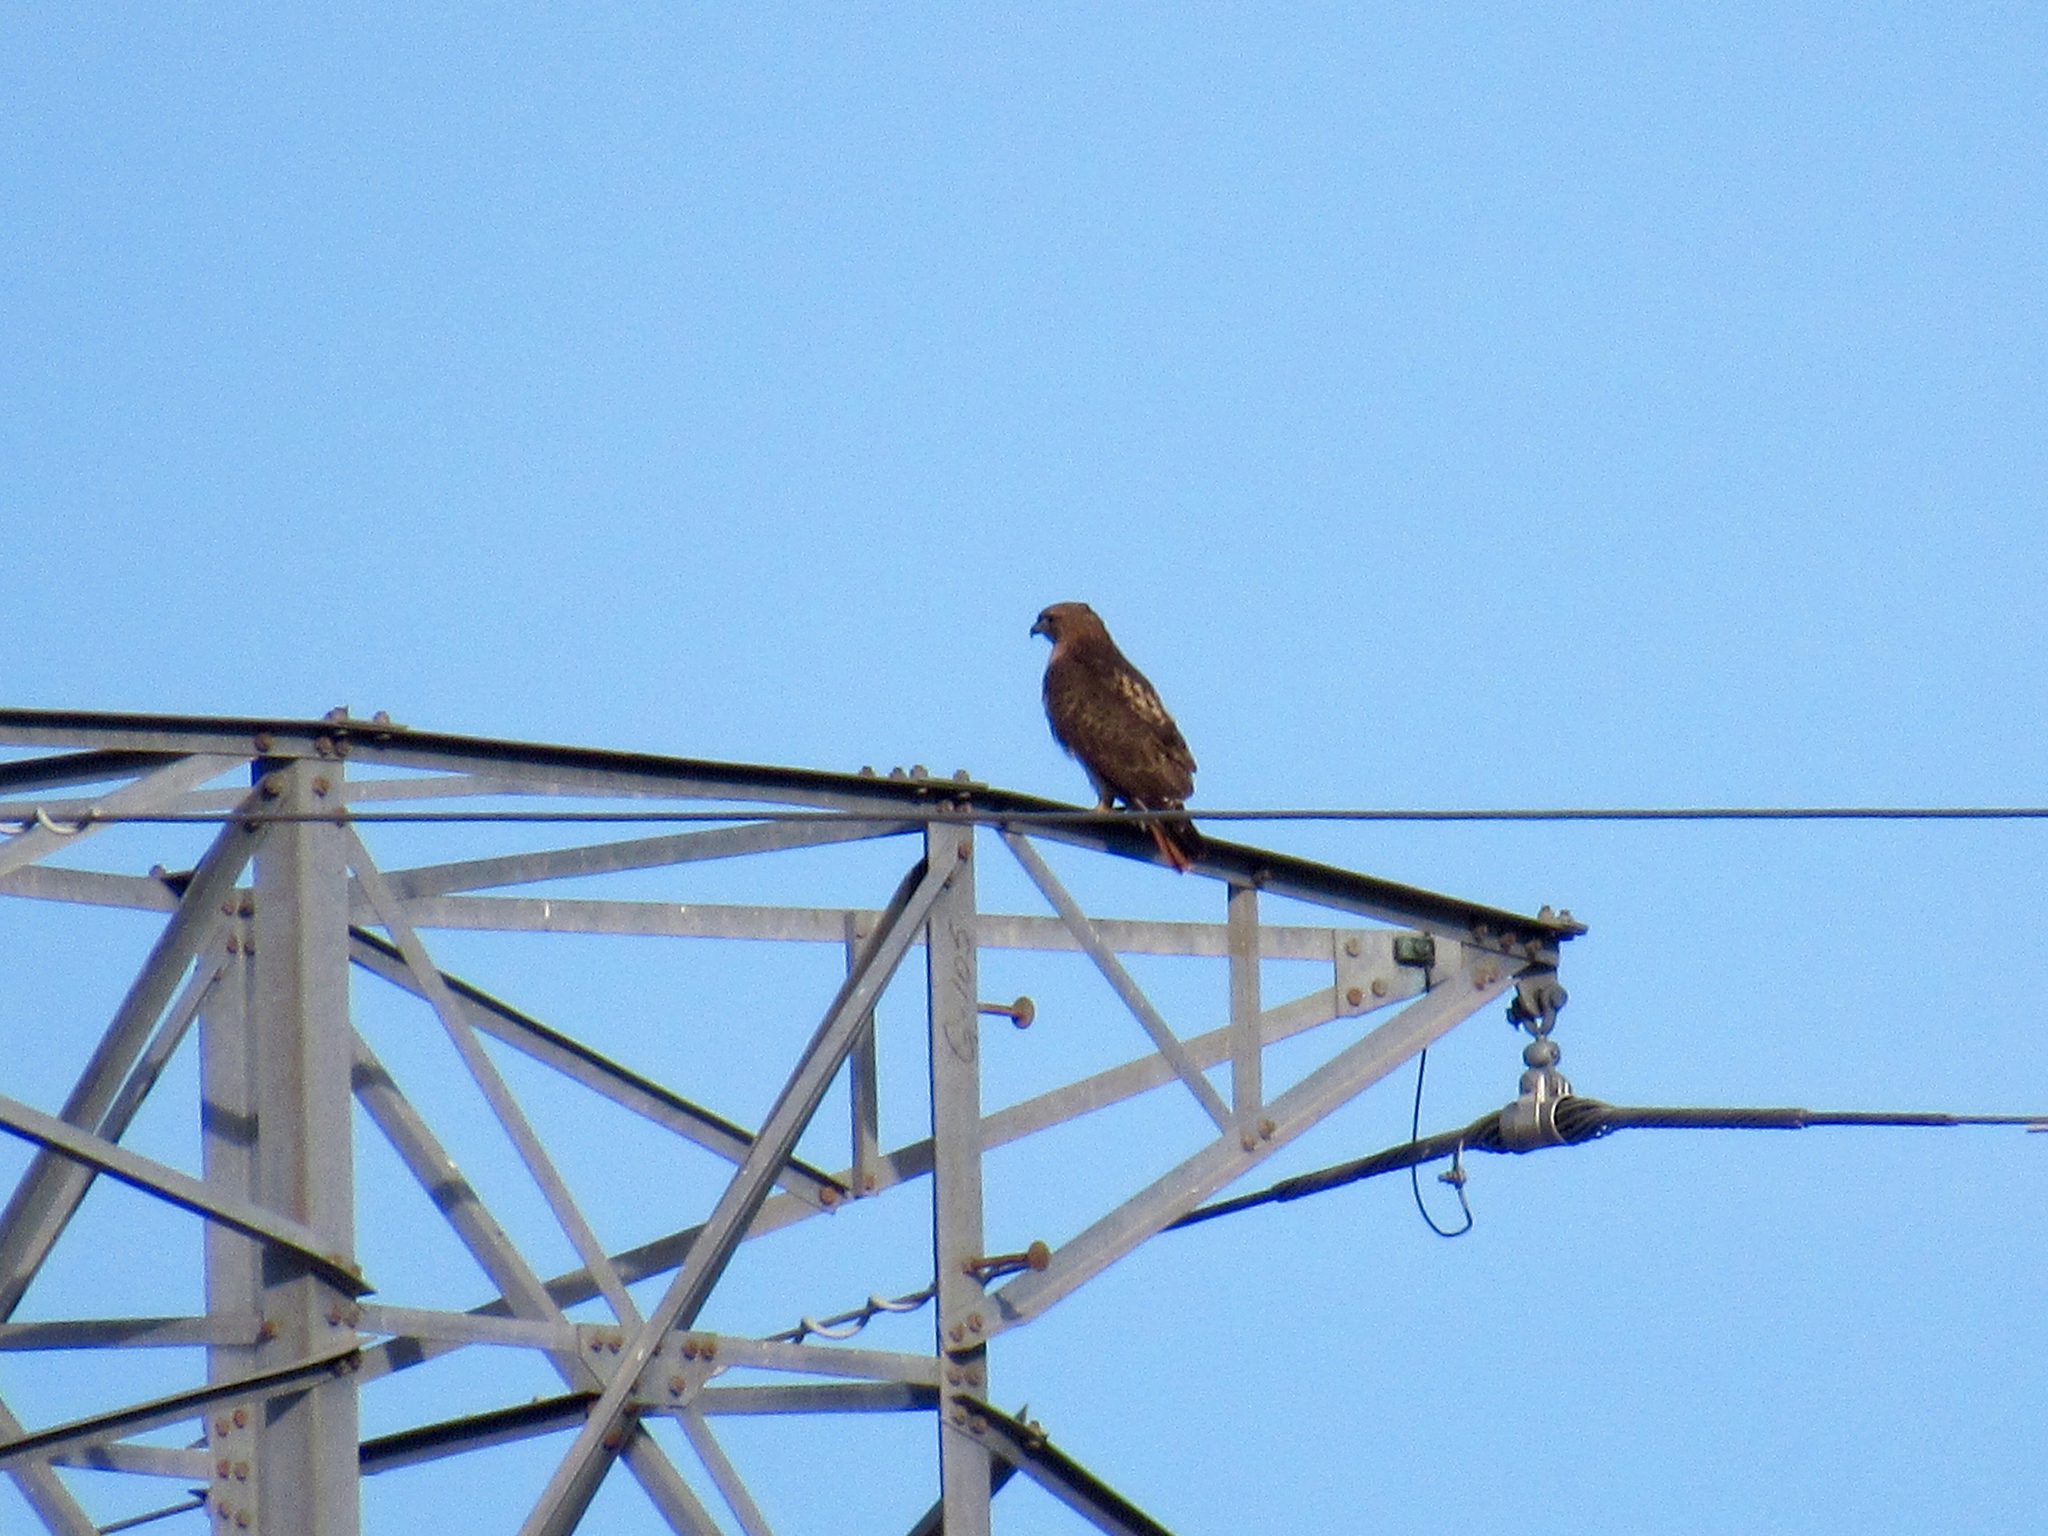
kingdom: Animalia
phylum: Chordata
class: Aves
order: Accipitriformes
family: Accipitridae
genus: Buteo
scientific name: Buteo jamaicensis
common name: Red-tailed hawk
